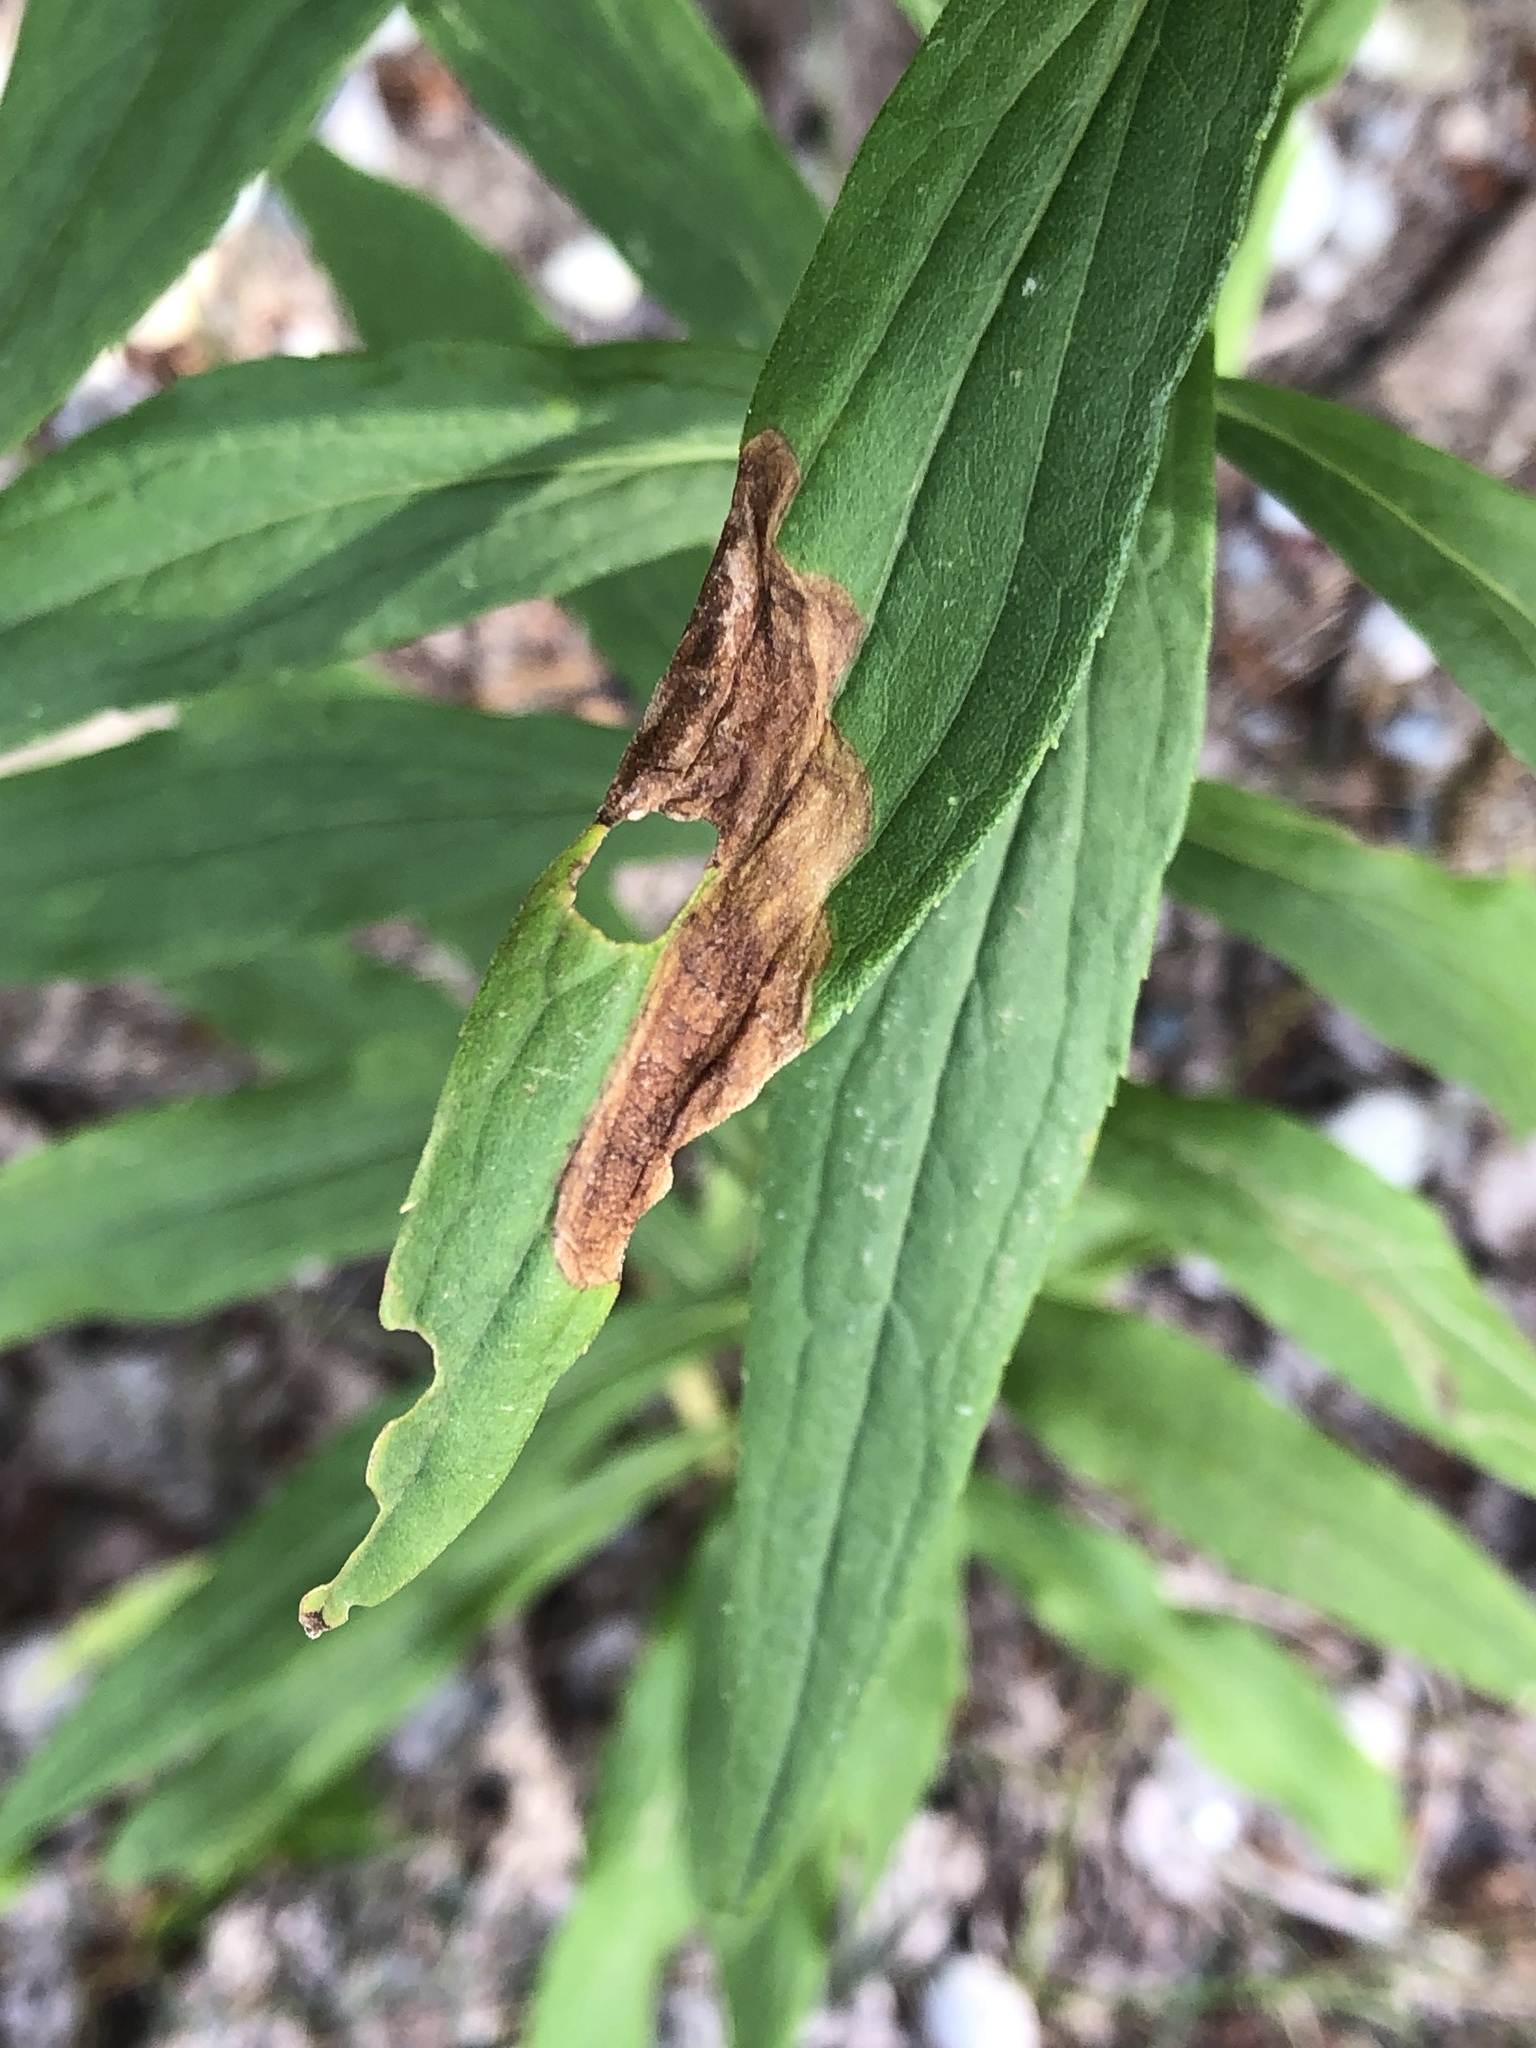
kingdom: Animalia
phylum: Arthropoda
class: Insecta
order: Diptera
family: Agromyzidae
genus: Nemorimyza
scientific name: Nemorimyza posticata
